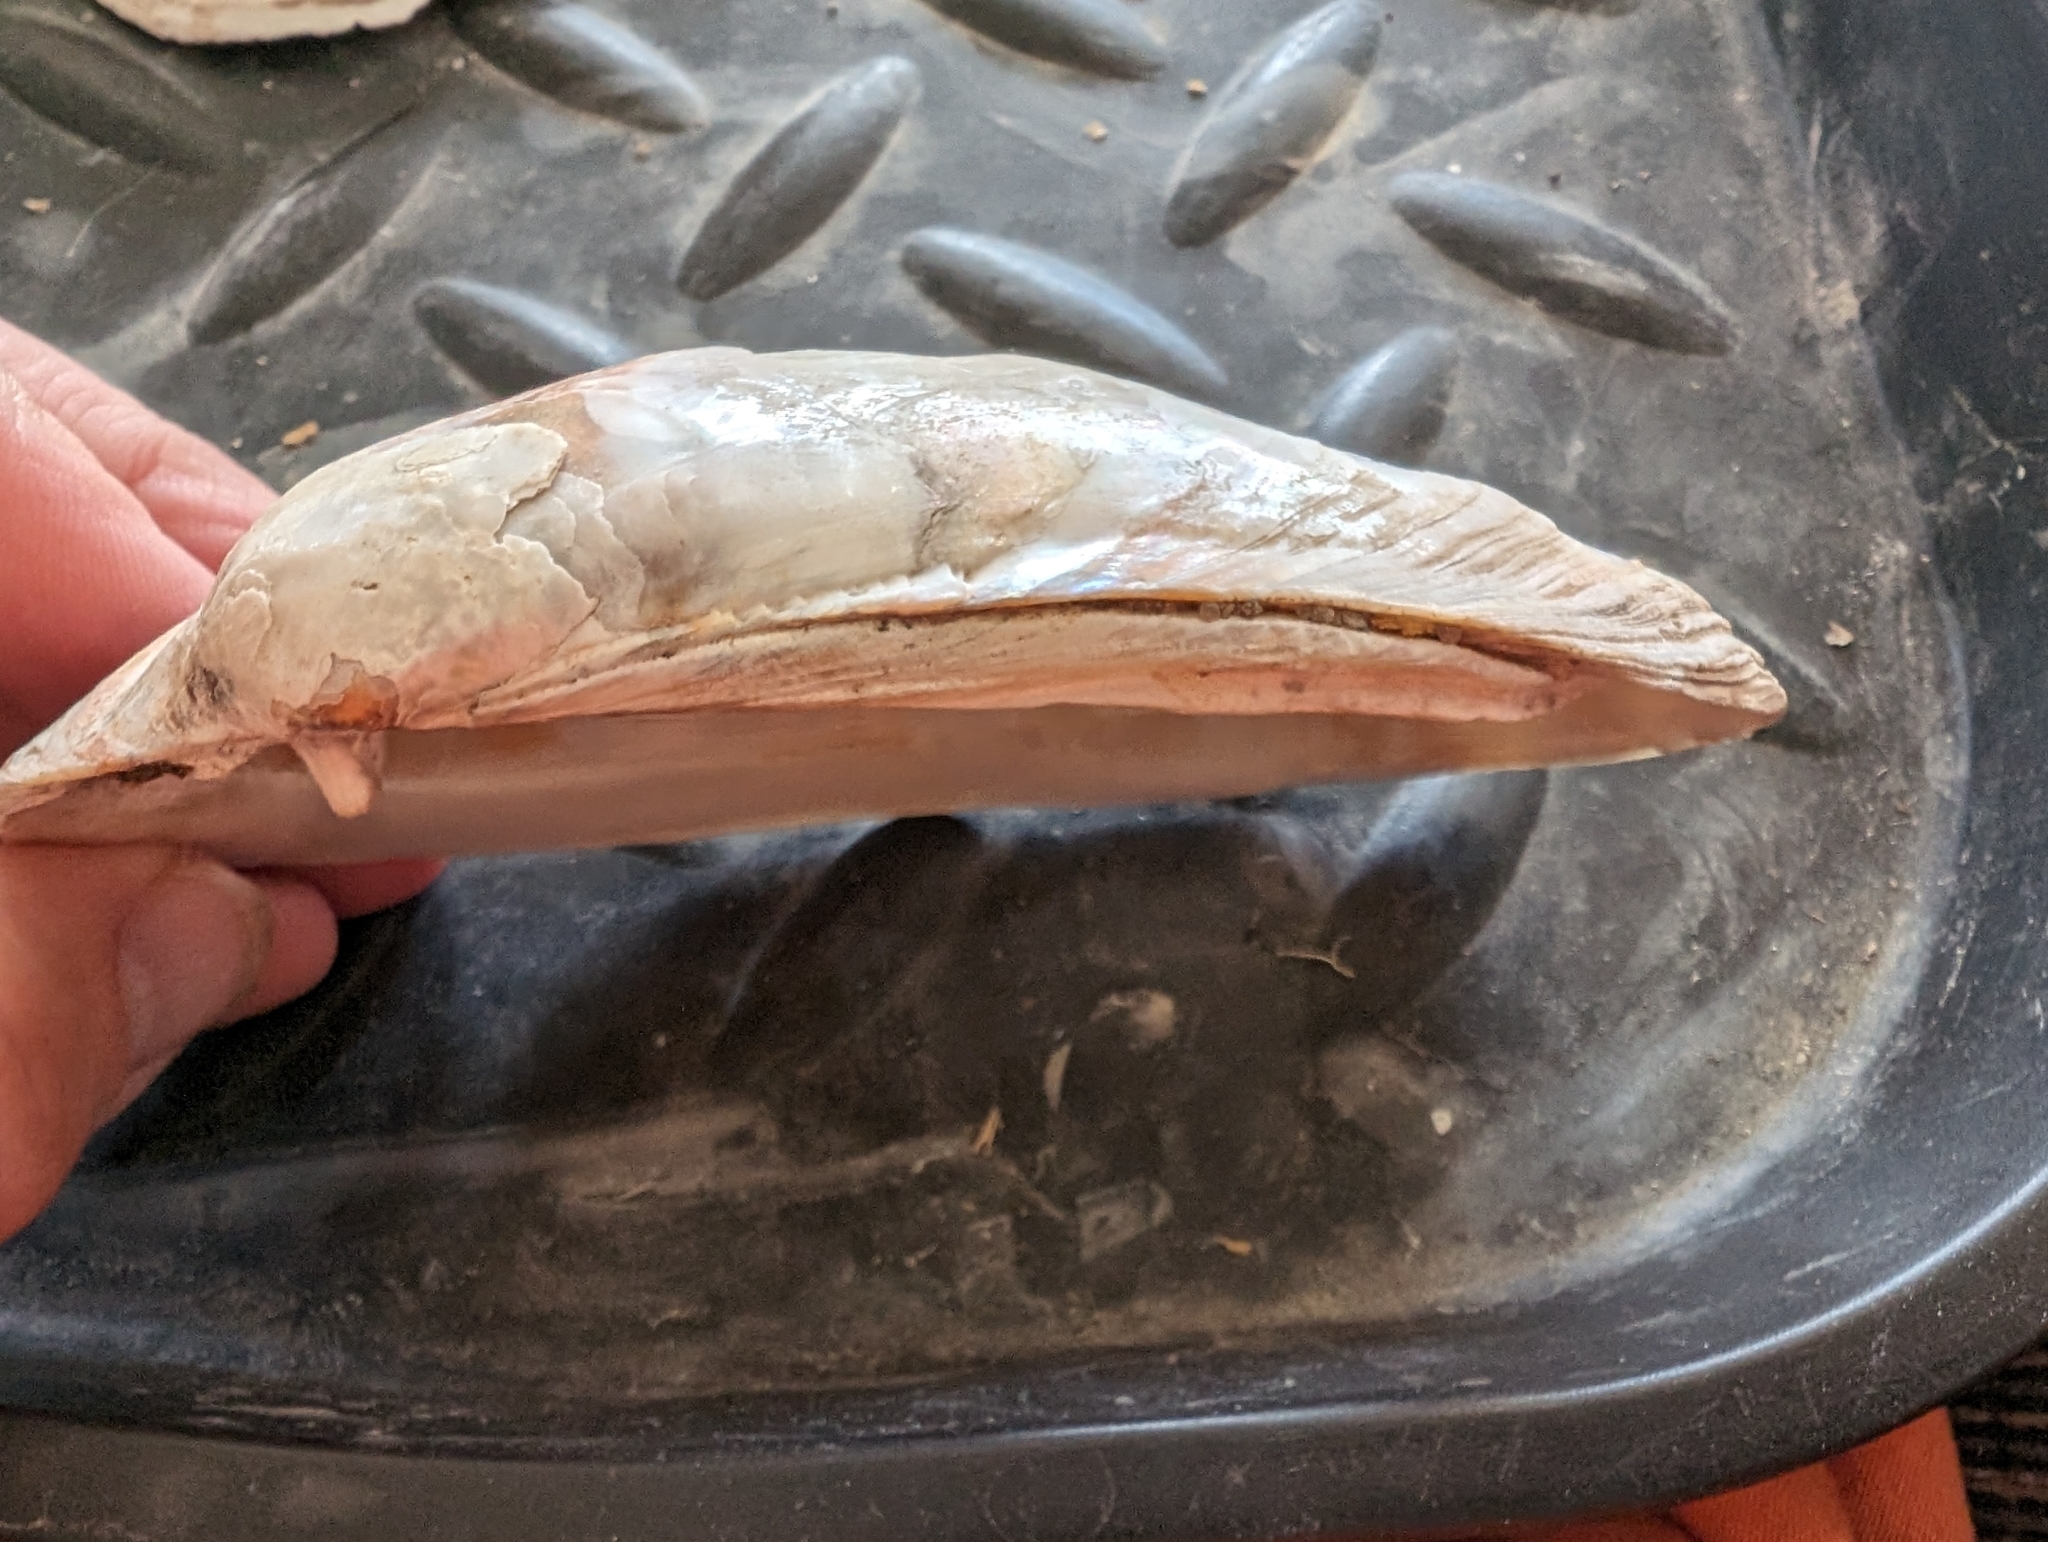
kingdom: Animalia
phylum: Mollusca
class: Bivalvia
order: Unionida
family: Unionidae
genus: Lampsilis
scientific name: Lampsilis siliquoidea
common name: Fatmucket
